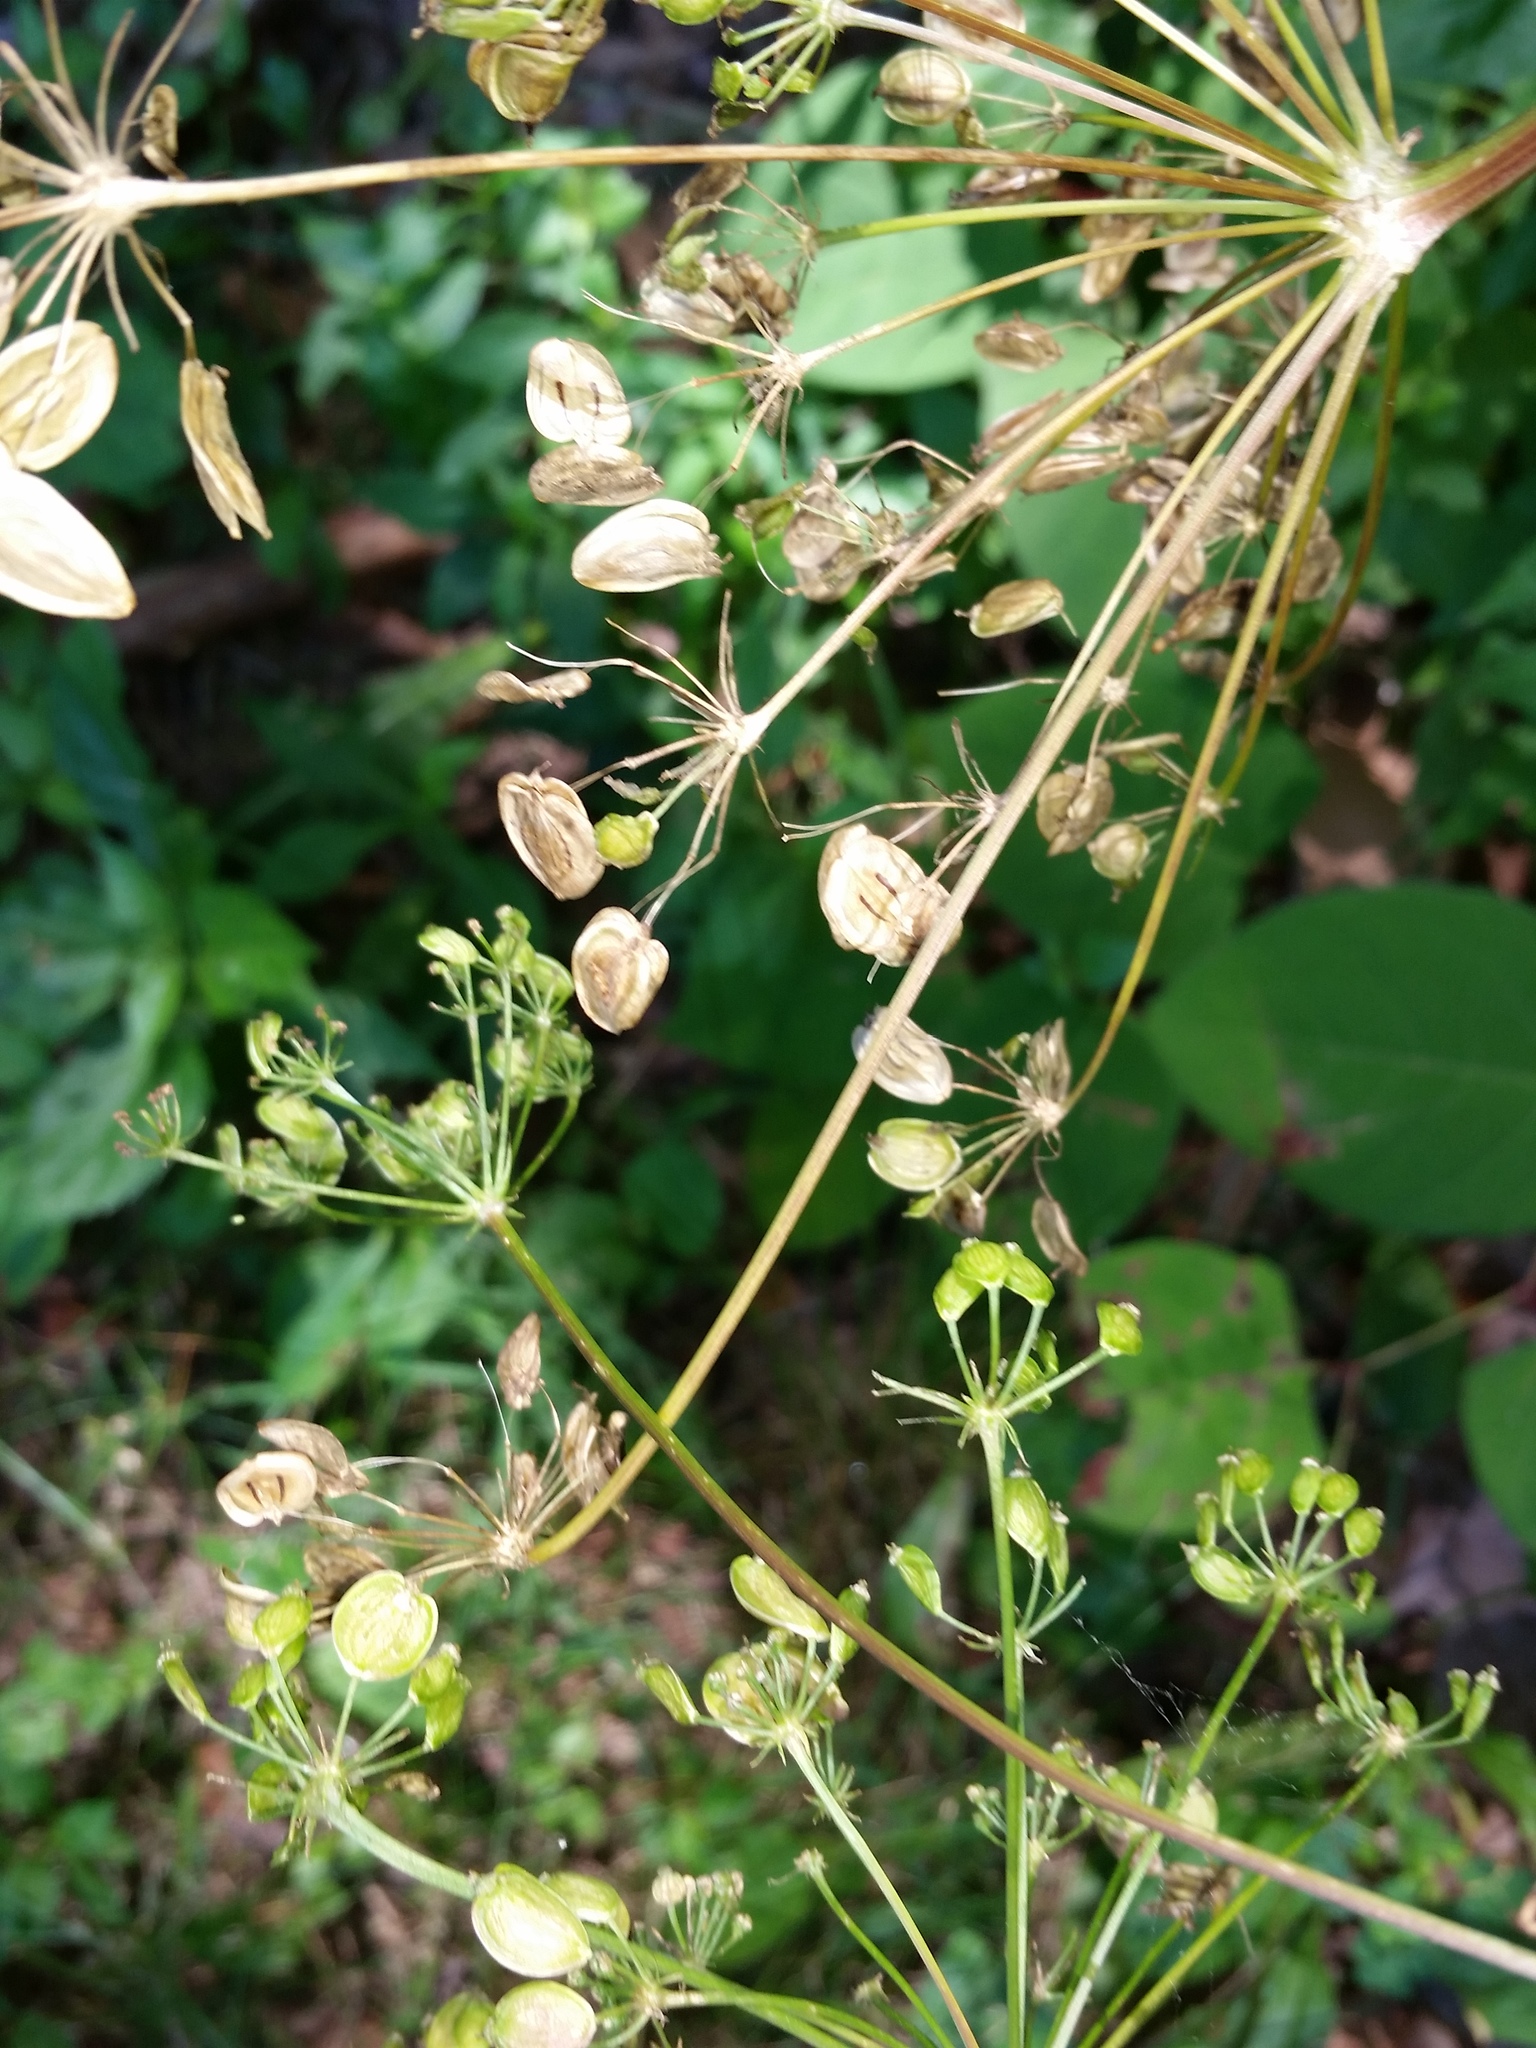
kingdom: Plantae
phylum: Tracheophyta
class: Magnoliopsida
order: Apiales
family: Apiaceae
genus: Heracleum
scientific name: Heracleum maximum
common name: American cow parsnip
